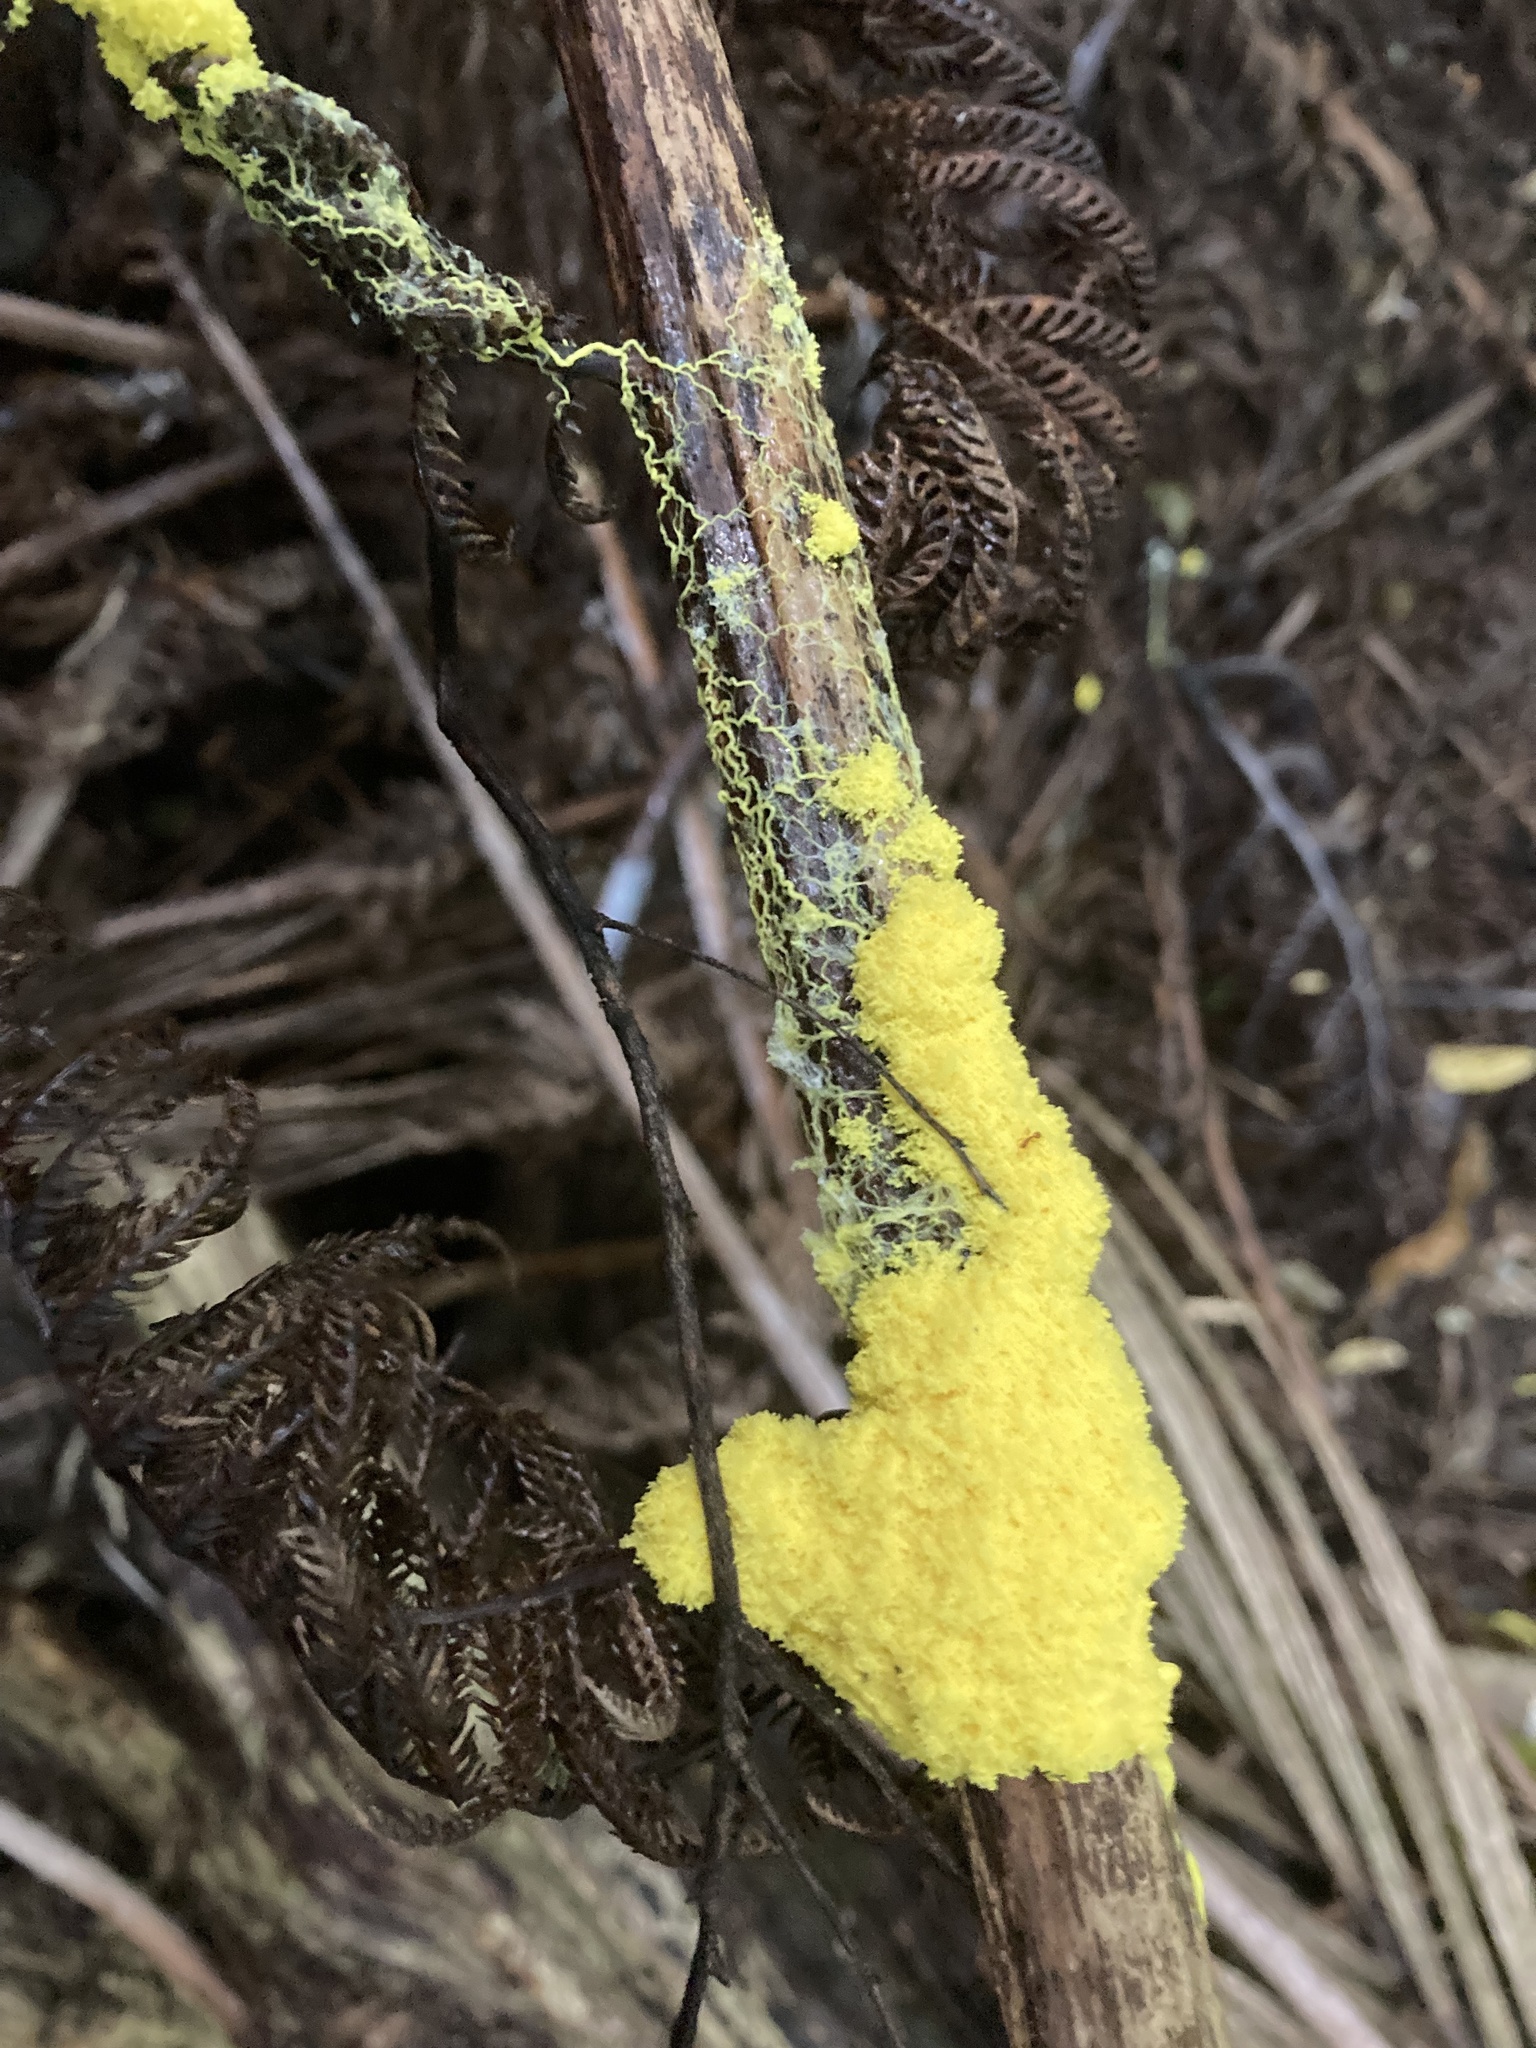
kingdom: Protozoa
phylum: Mycetozoa
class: Myxomycetes
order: Physarales
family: Physaraceae
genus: Fuligo
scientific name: Fuligo septica
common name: Dog vomit slime mold
